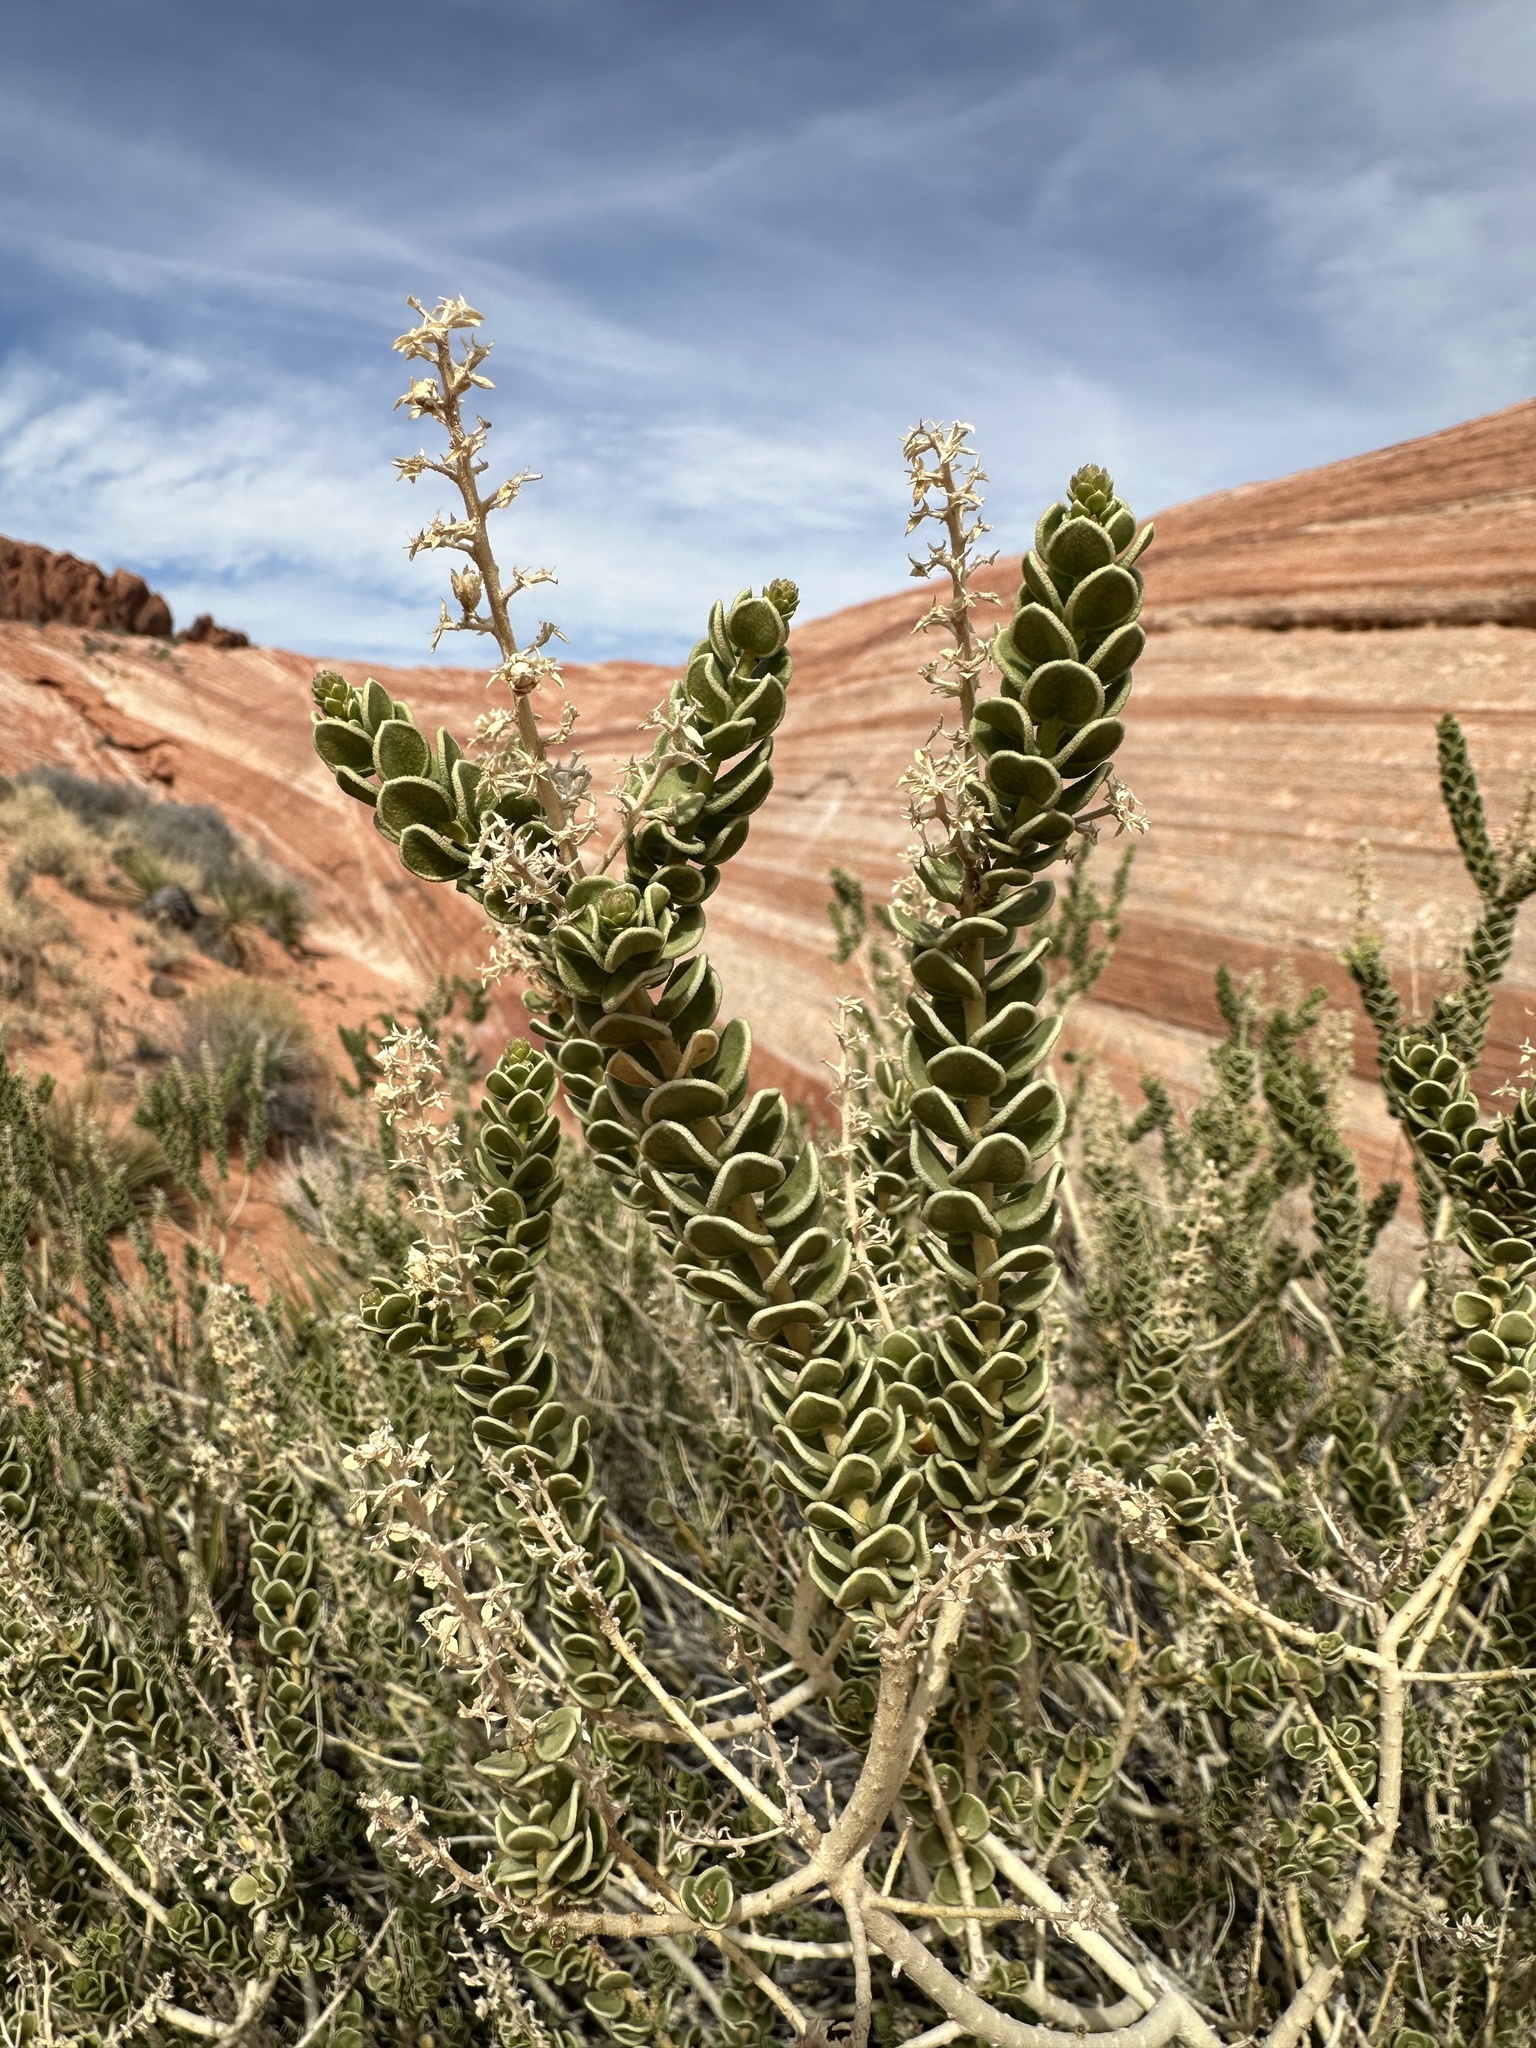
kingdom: Plantae
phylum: Tracheophyta
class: Magnoliopsida
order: Celastrales
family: Celastraceae
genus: Mortonia
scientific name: Mortonia utahensis
